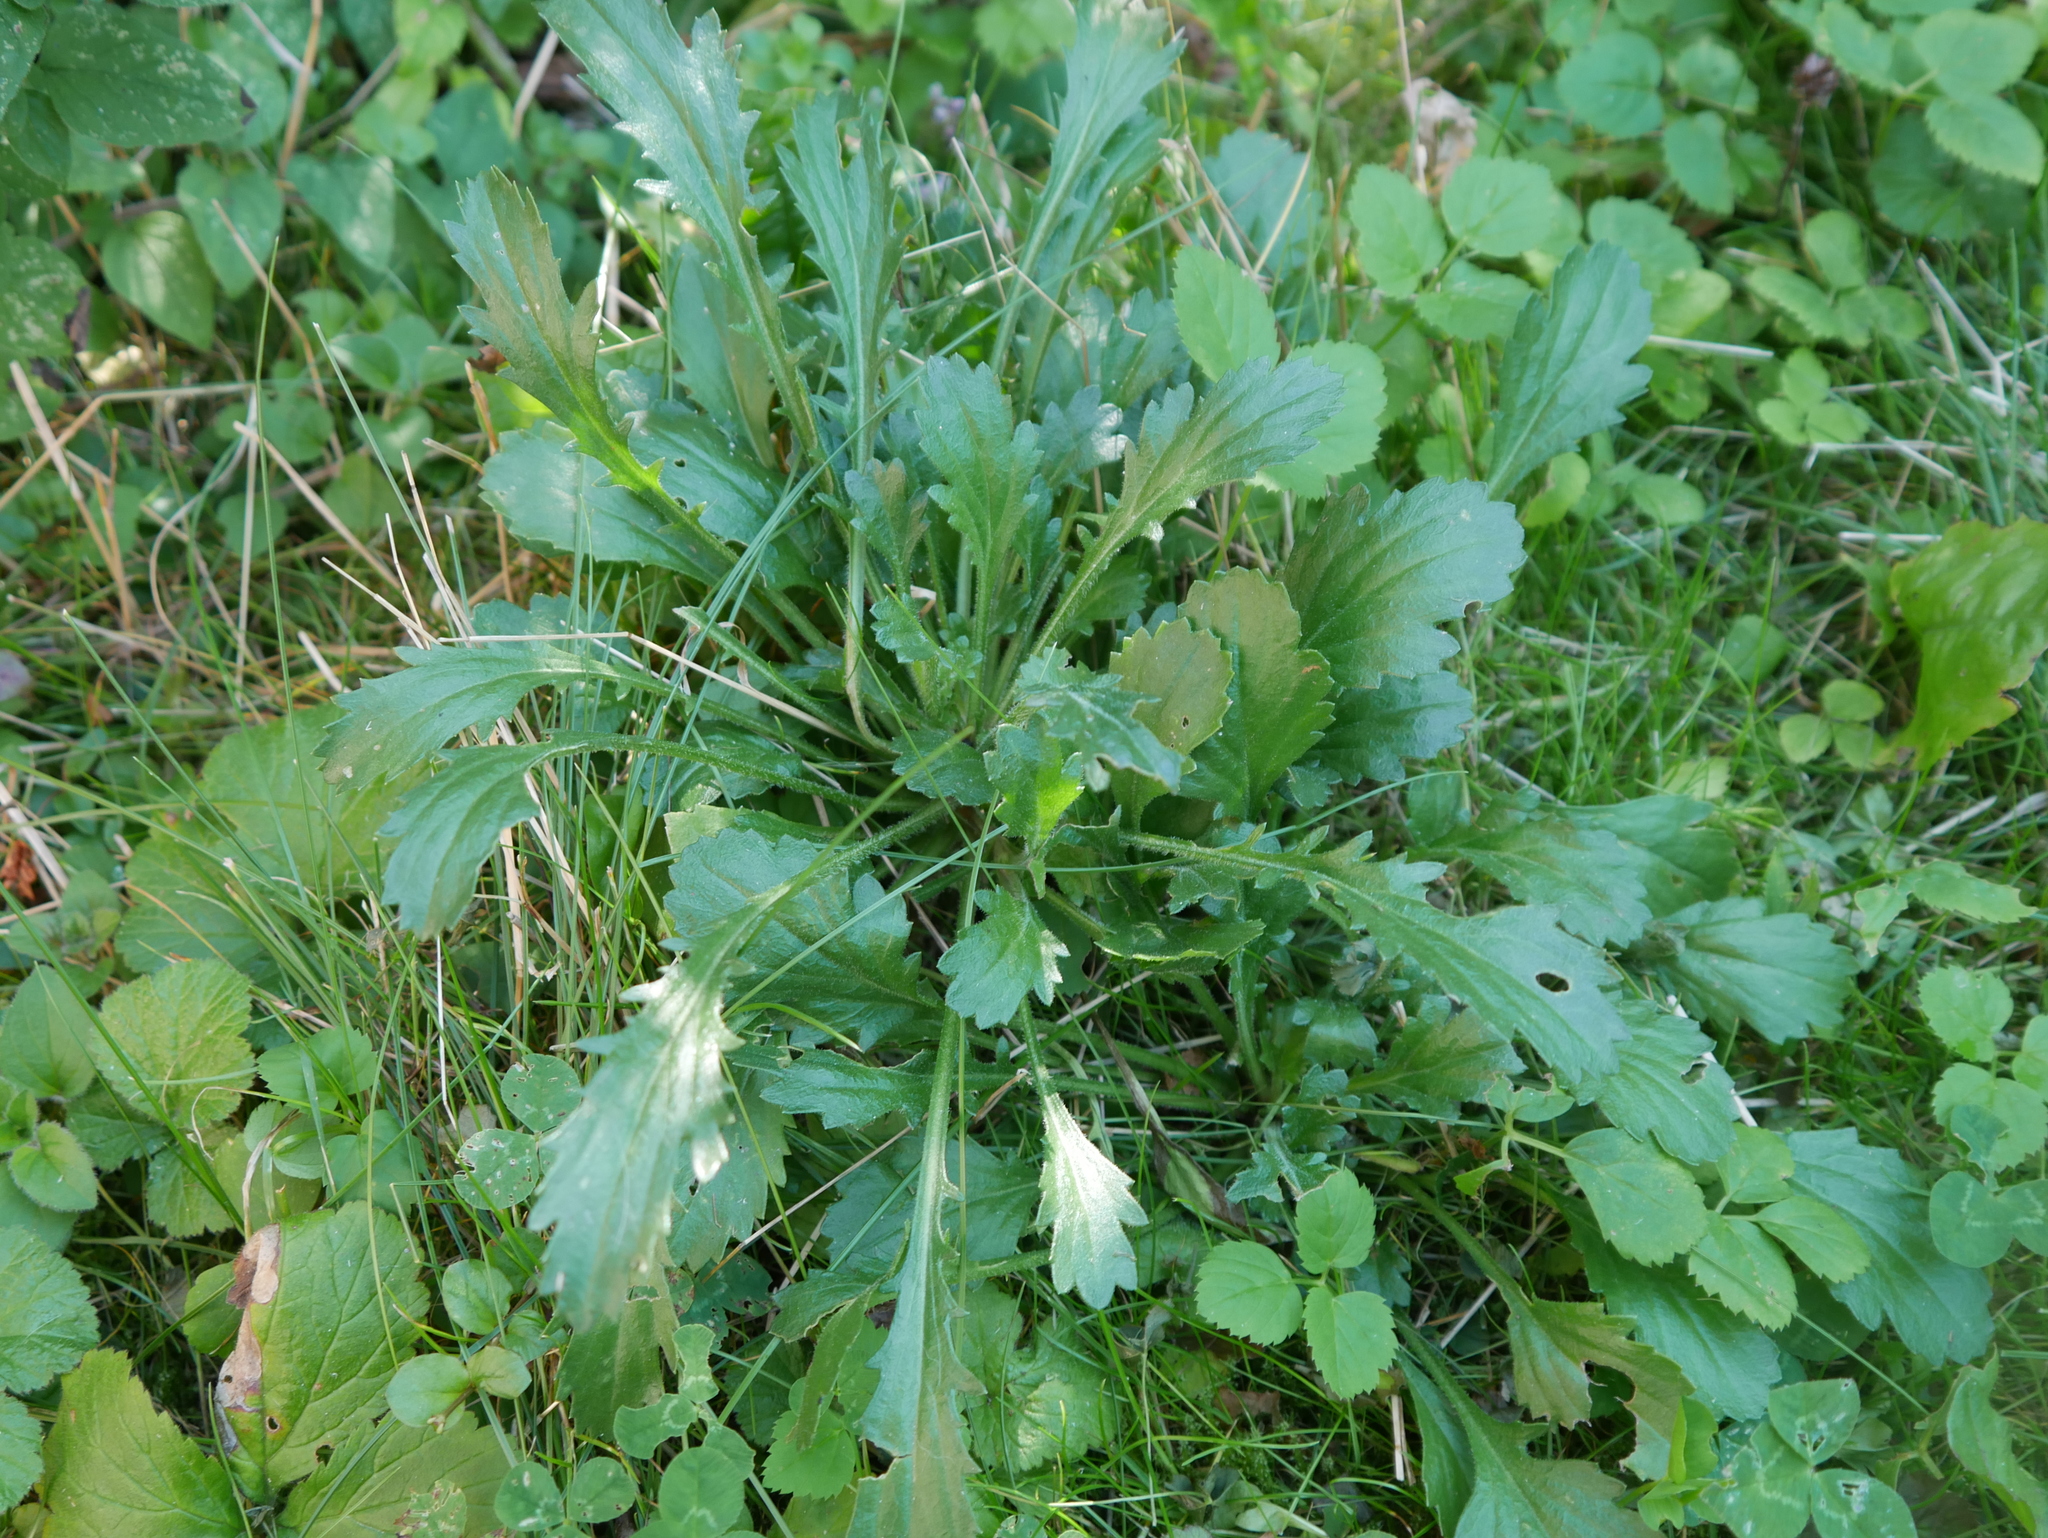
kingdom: Plantae
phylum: Tracheophyta
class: Magnoliopsida
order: Asterales
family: Asteraceae
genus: Leucanthemum
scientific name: Leucanthemum vulgare
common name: Oxeye daisy
